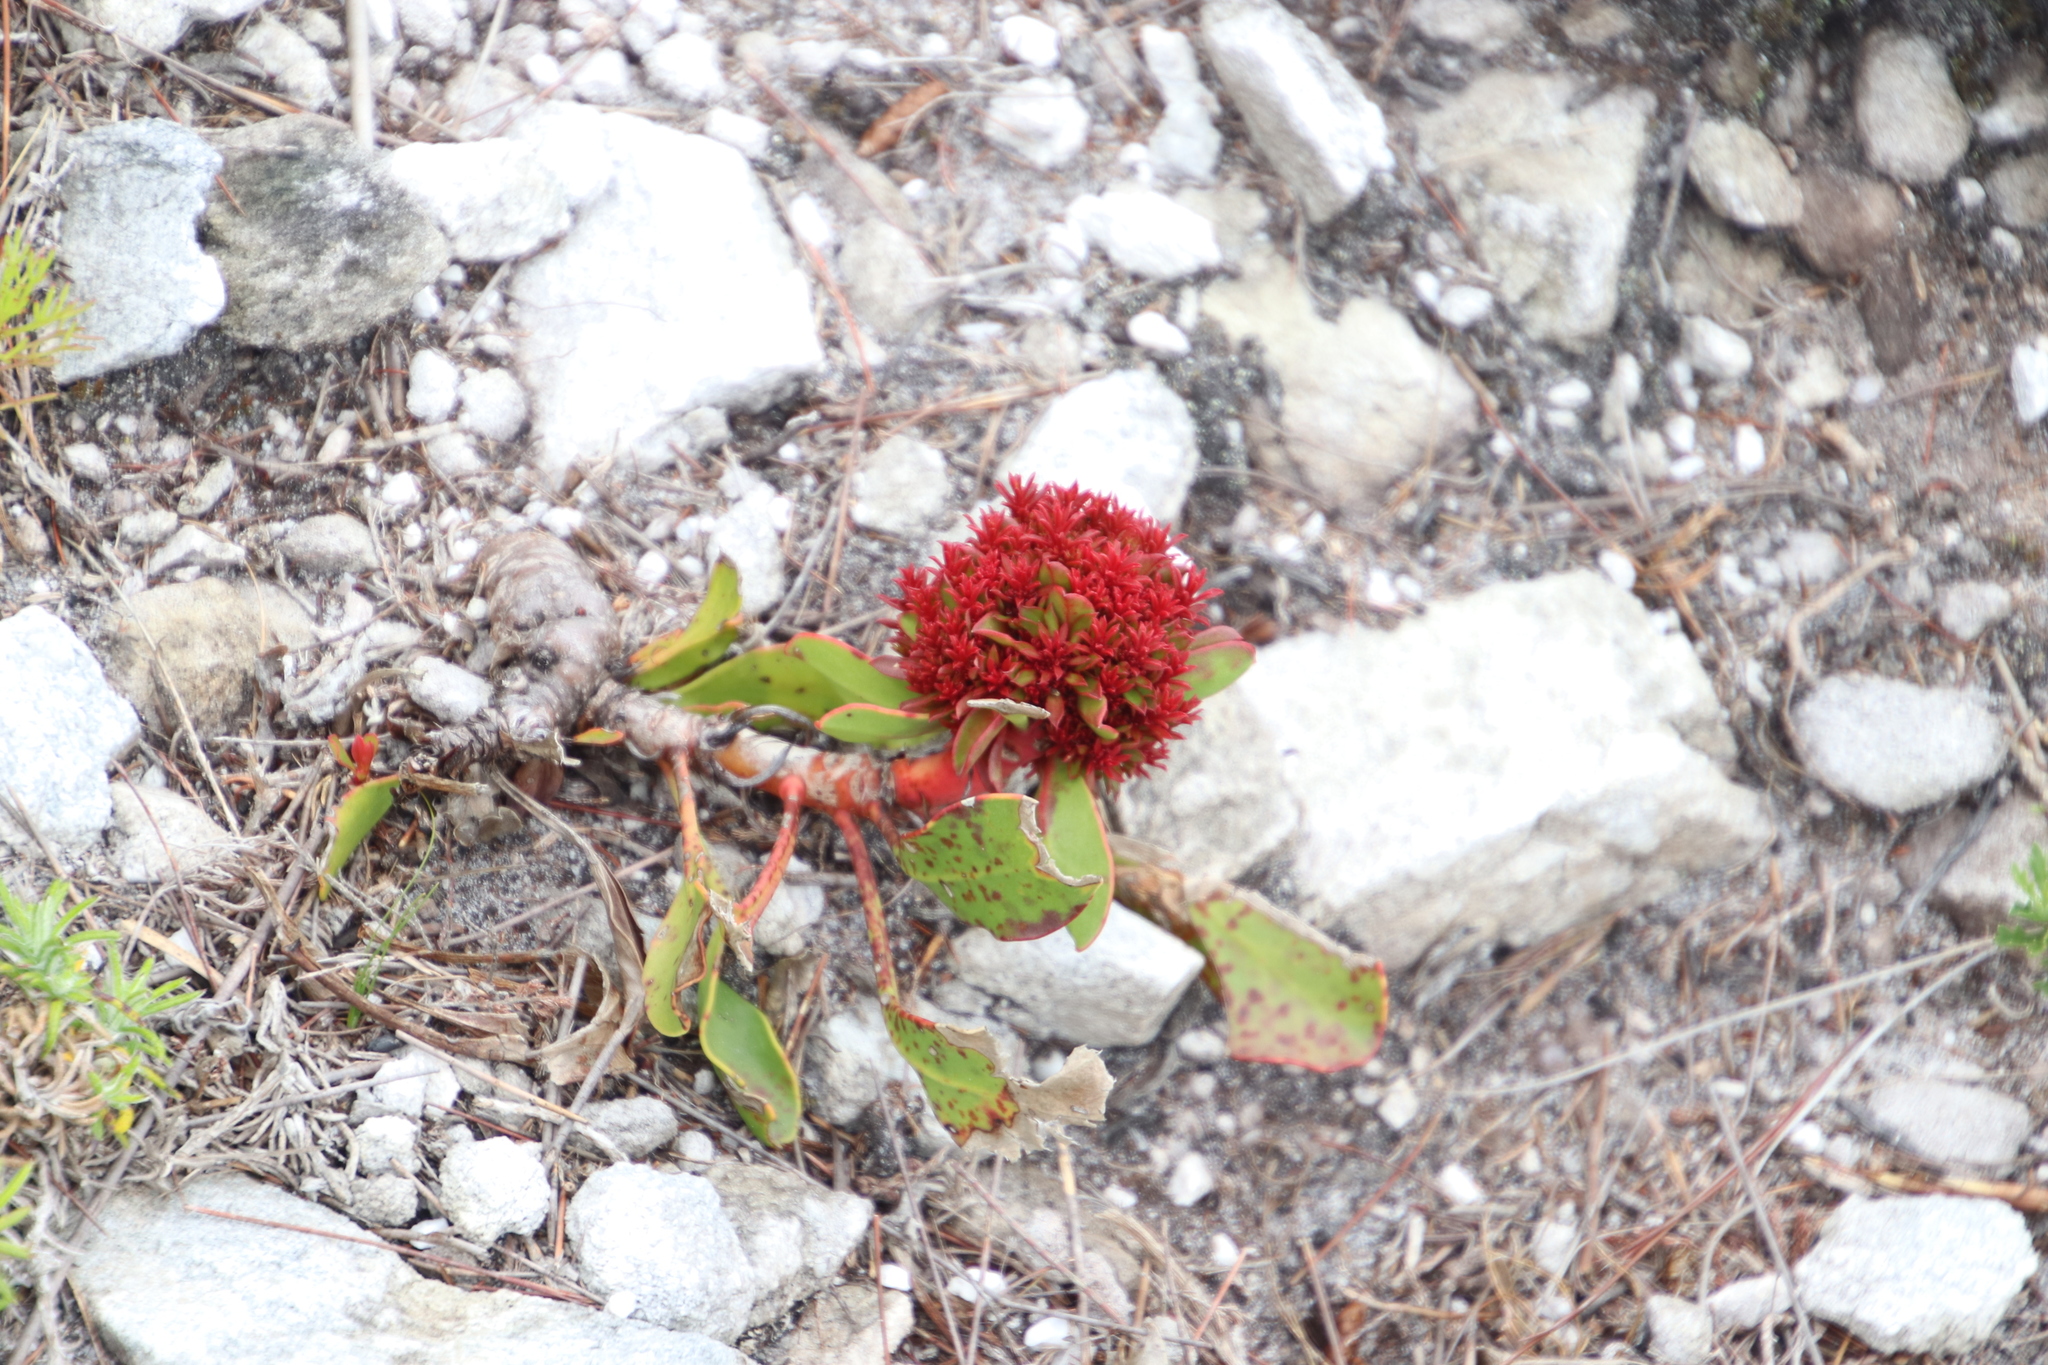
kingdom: Bacteria
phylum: Firmicutes
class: Bacilli
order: Acholeplasmatales
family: Acholeplasmataceae
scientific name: Acholeplasmataceae
